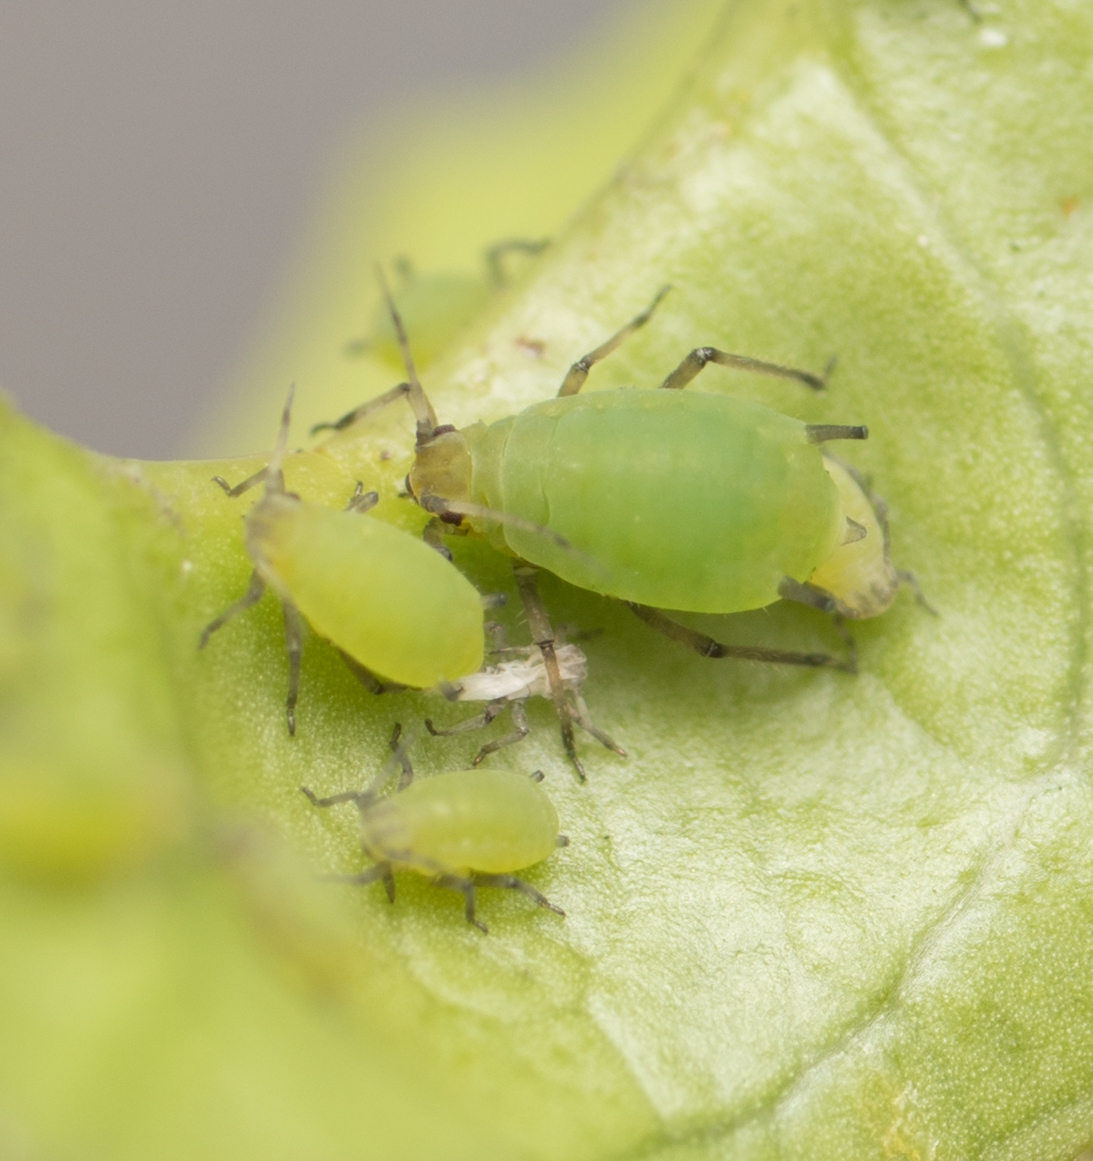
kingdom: Animalia
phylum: Arthropoda
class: Insecta
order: Hemiptera
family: Aphididae
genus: Aphis
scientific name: Aphis spiraecola
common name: Spirea aphid
